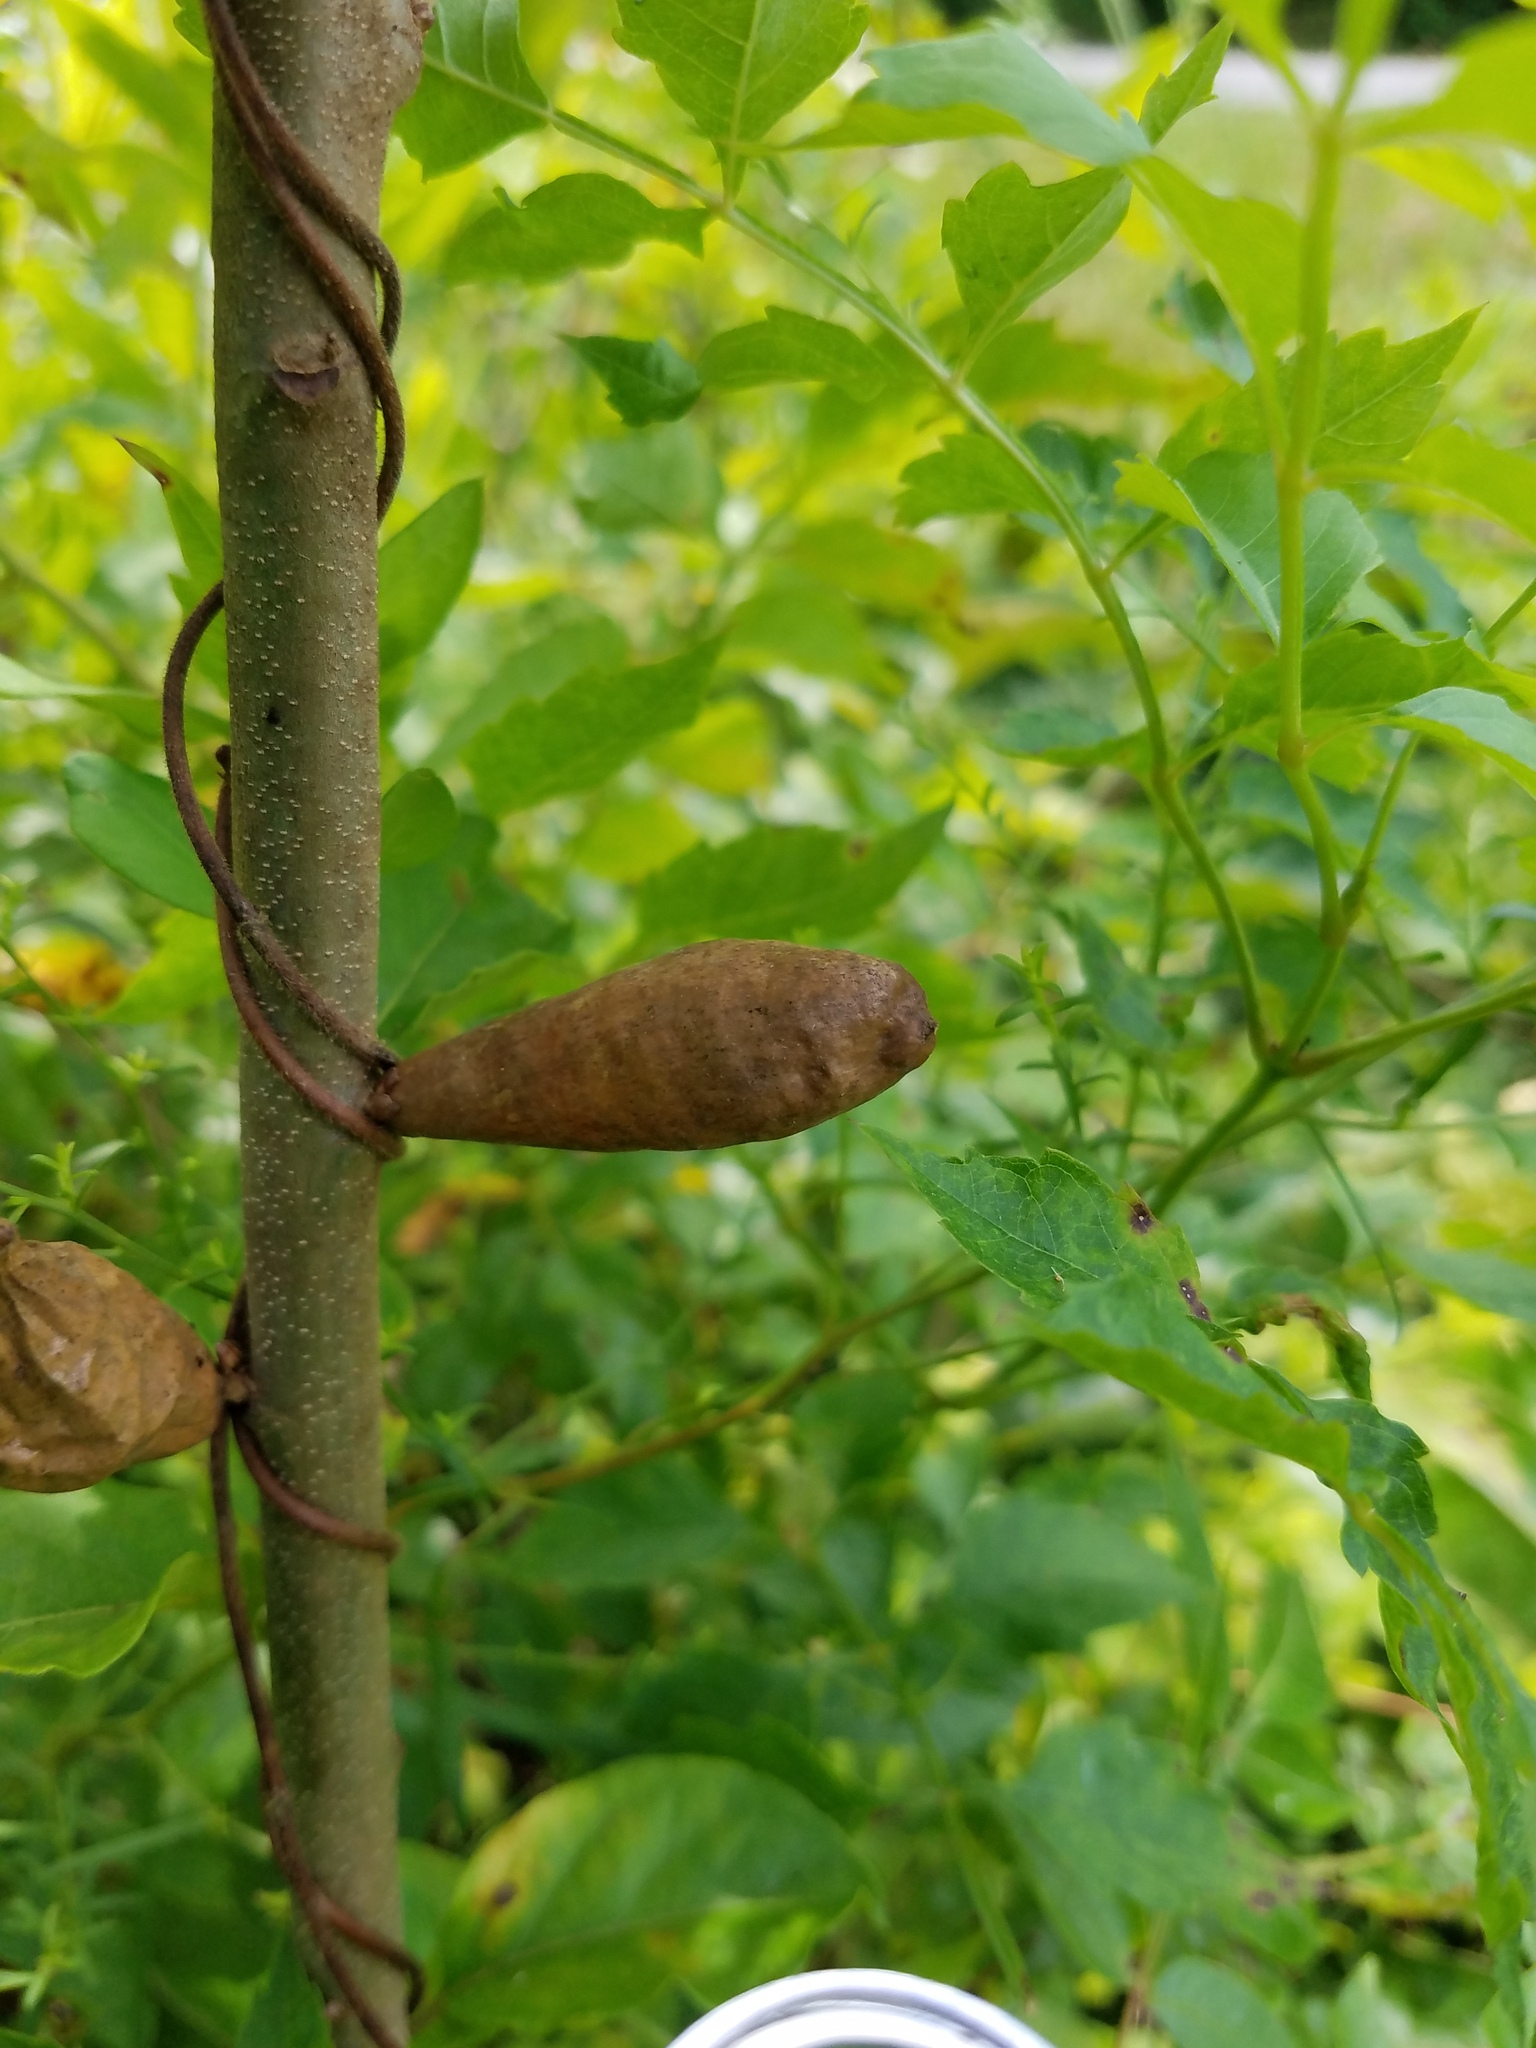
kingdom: Animalia
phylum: Arthropoda
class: Insecta
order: Hymenoptera
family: Cynipidae
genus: Amphibolips
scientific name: Amphibolips
